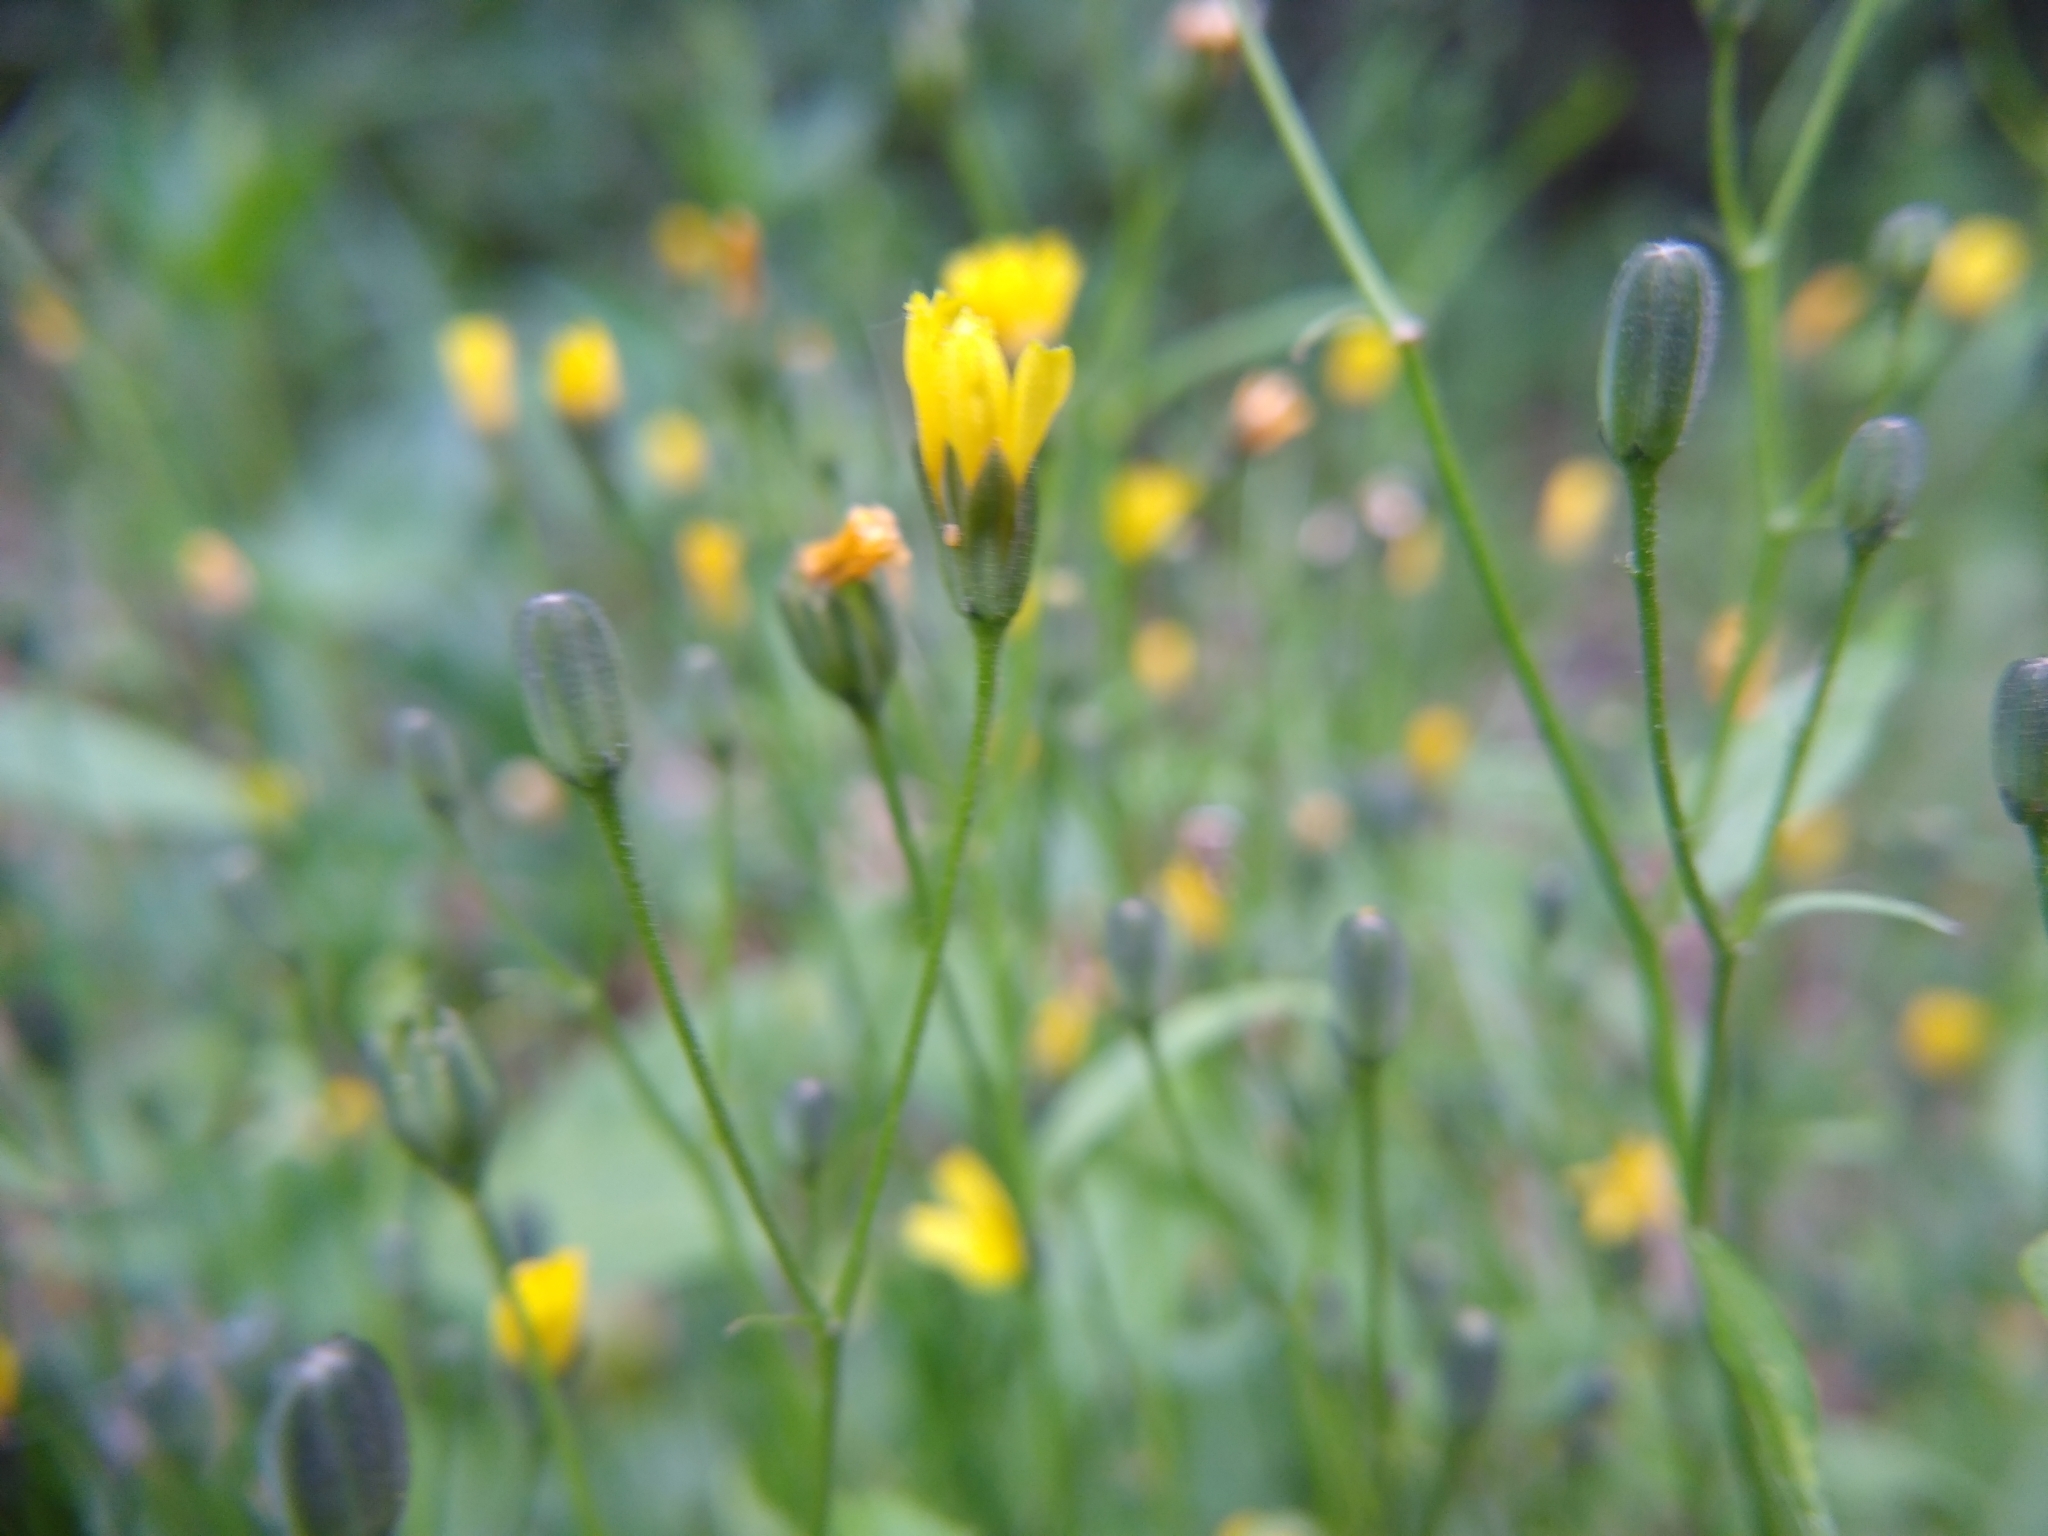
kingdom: Plantae
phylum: Tracheophyta
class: Magnoliopsida
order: Asterales
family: Asteraceae
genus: Lapsana
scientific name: Lapsana communis
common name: Nipplewort
